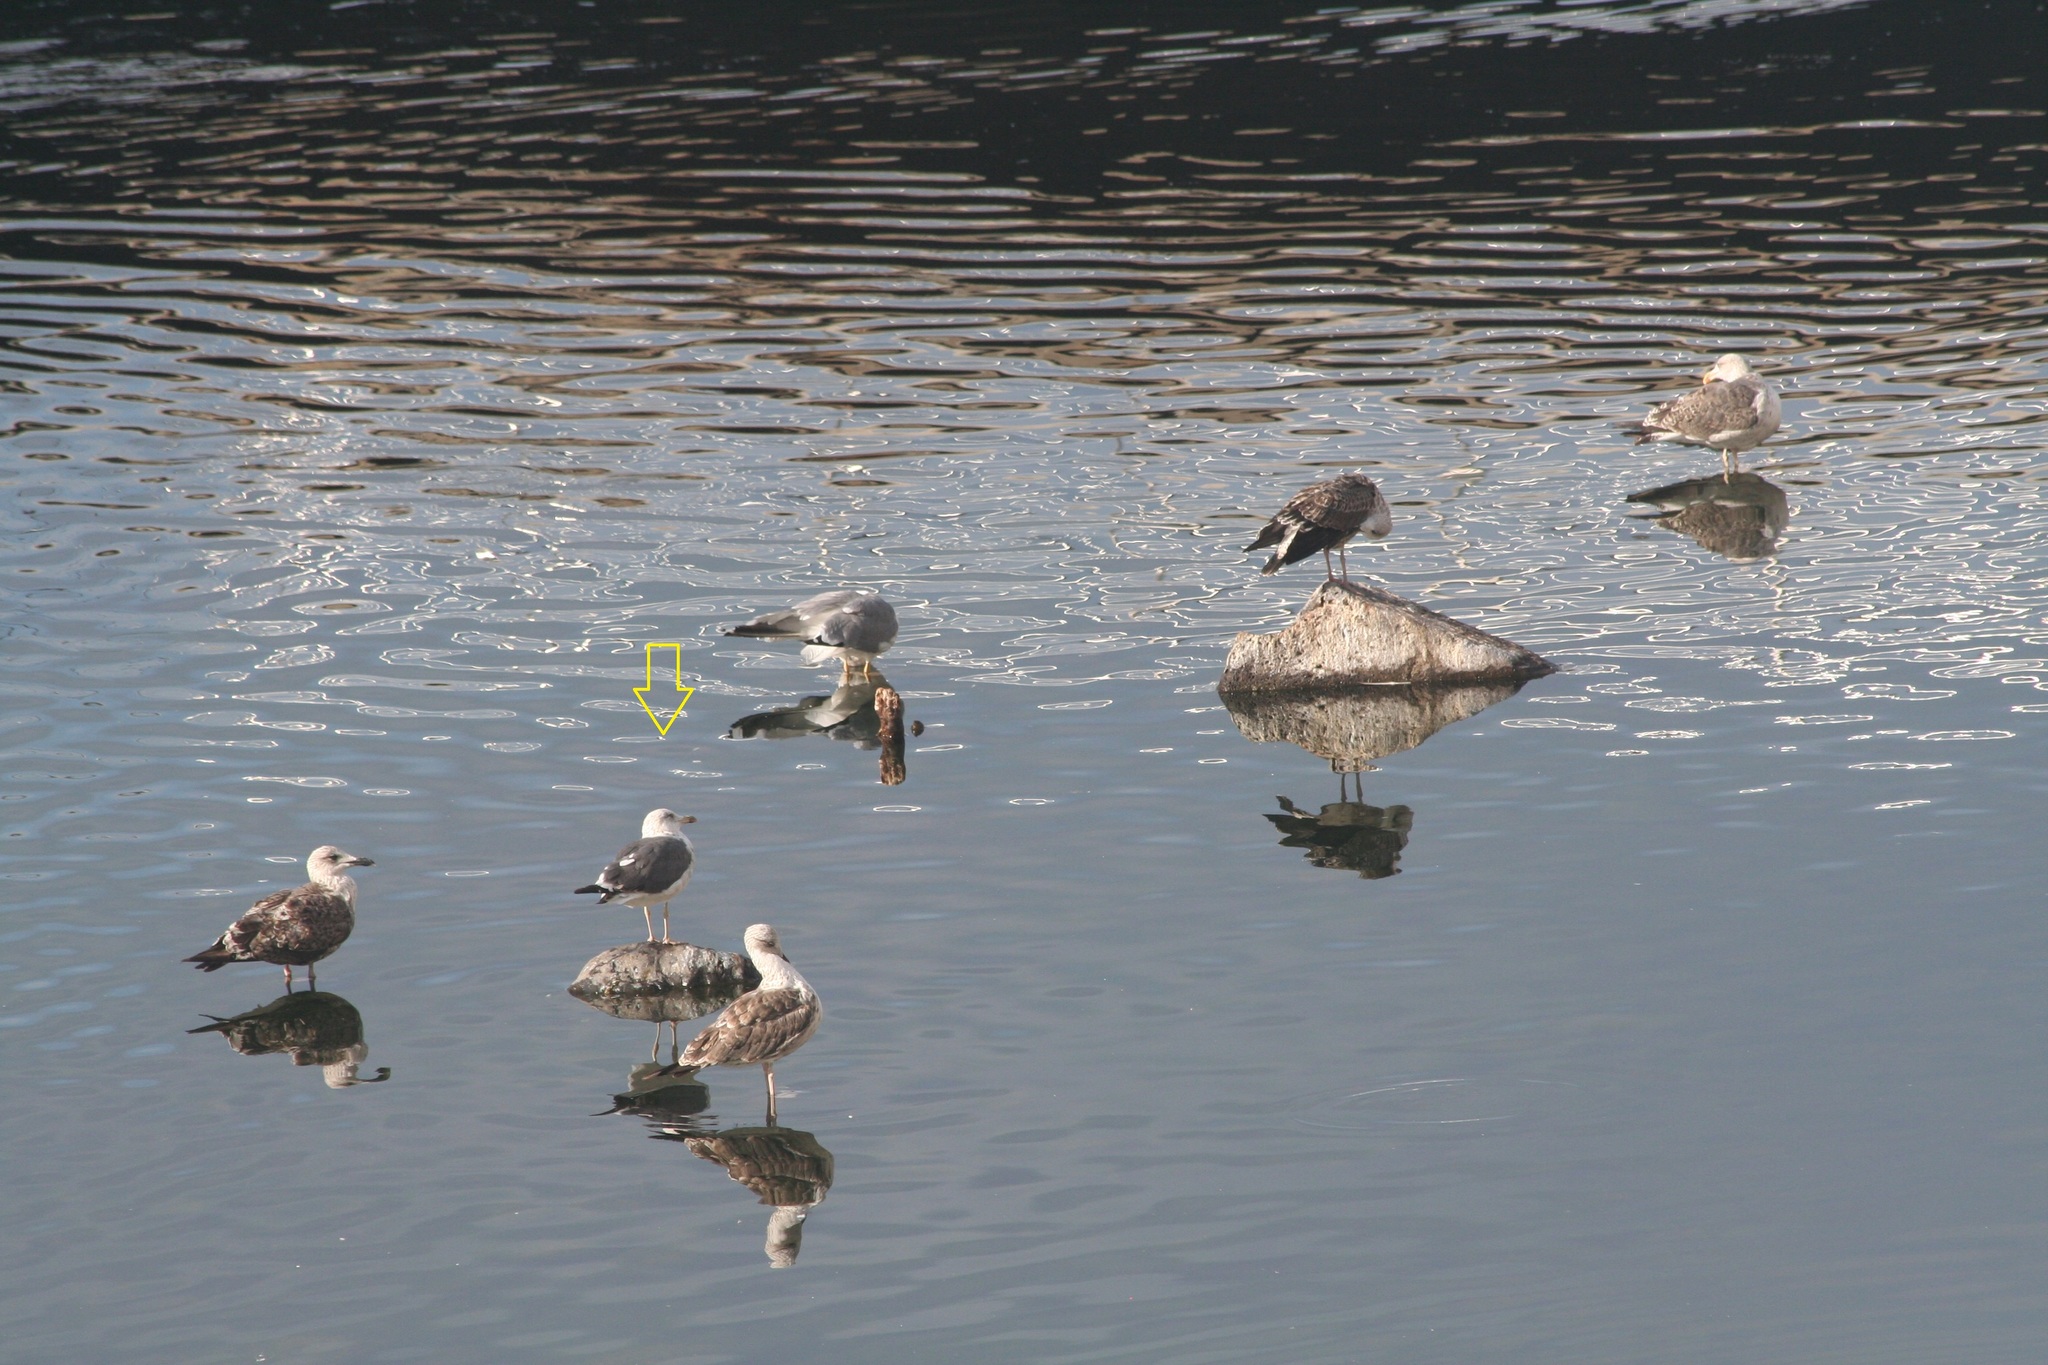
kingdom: Animalia
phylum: Chordata
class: Aves
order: Charadriiformes
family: Laridae
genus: Larus
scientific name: Larus fuscus
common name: Lesser black-backed gull
